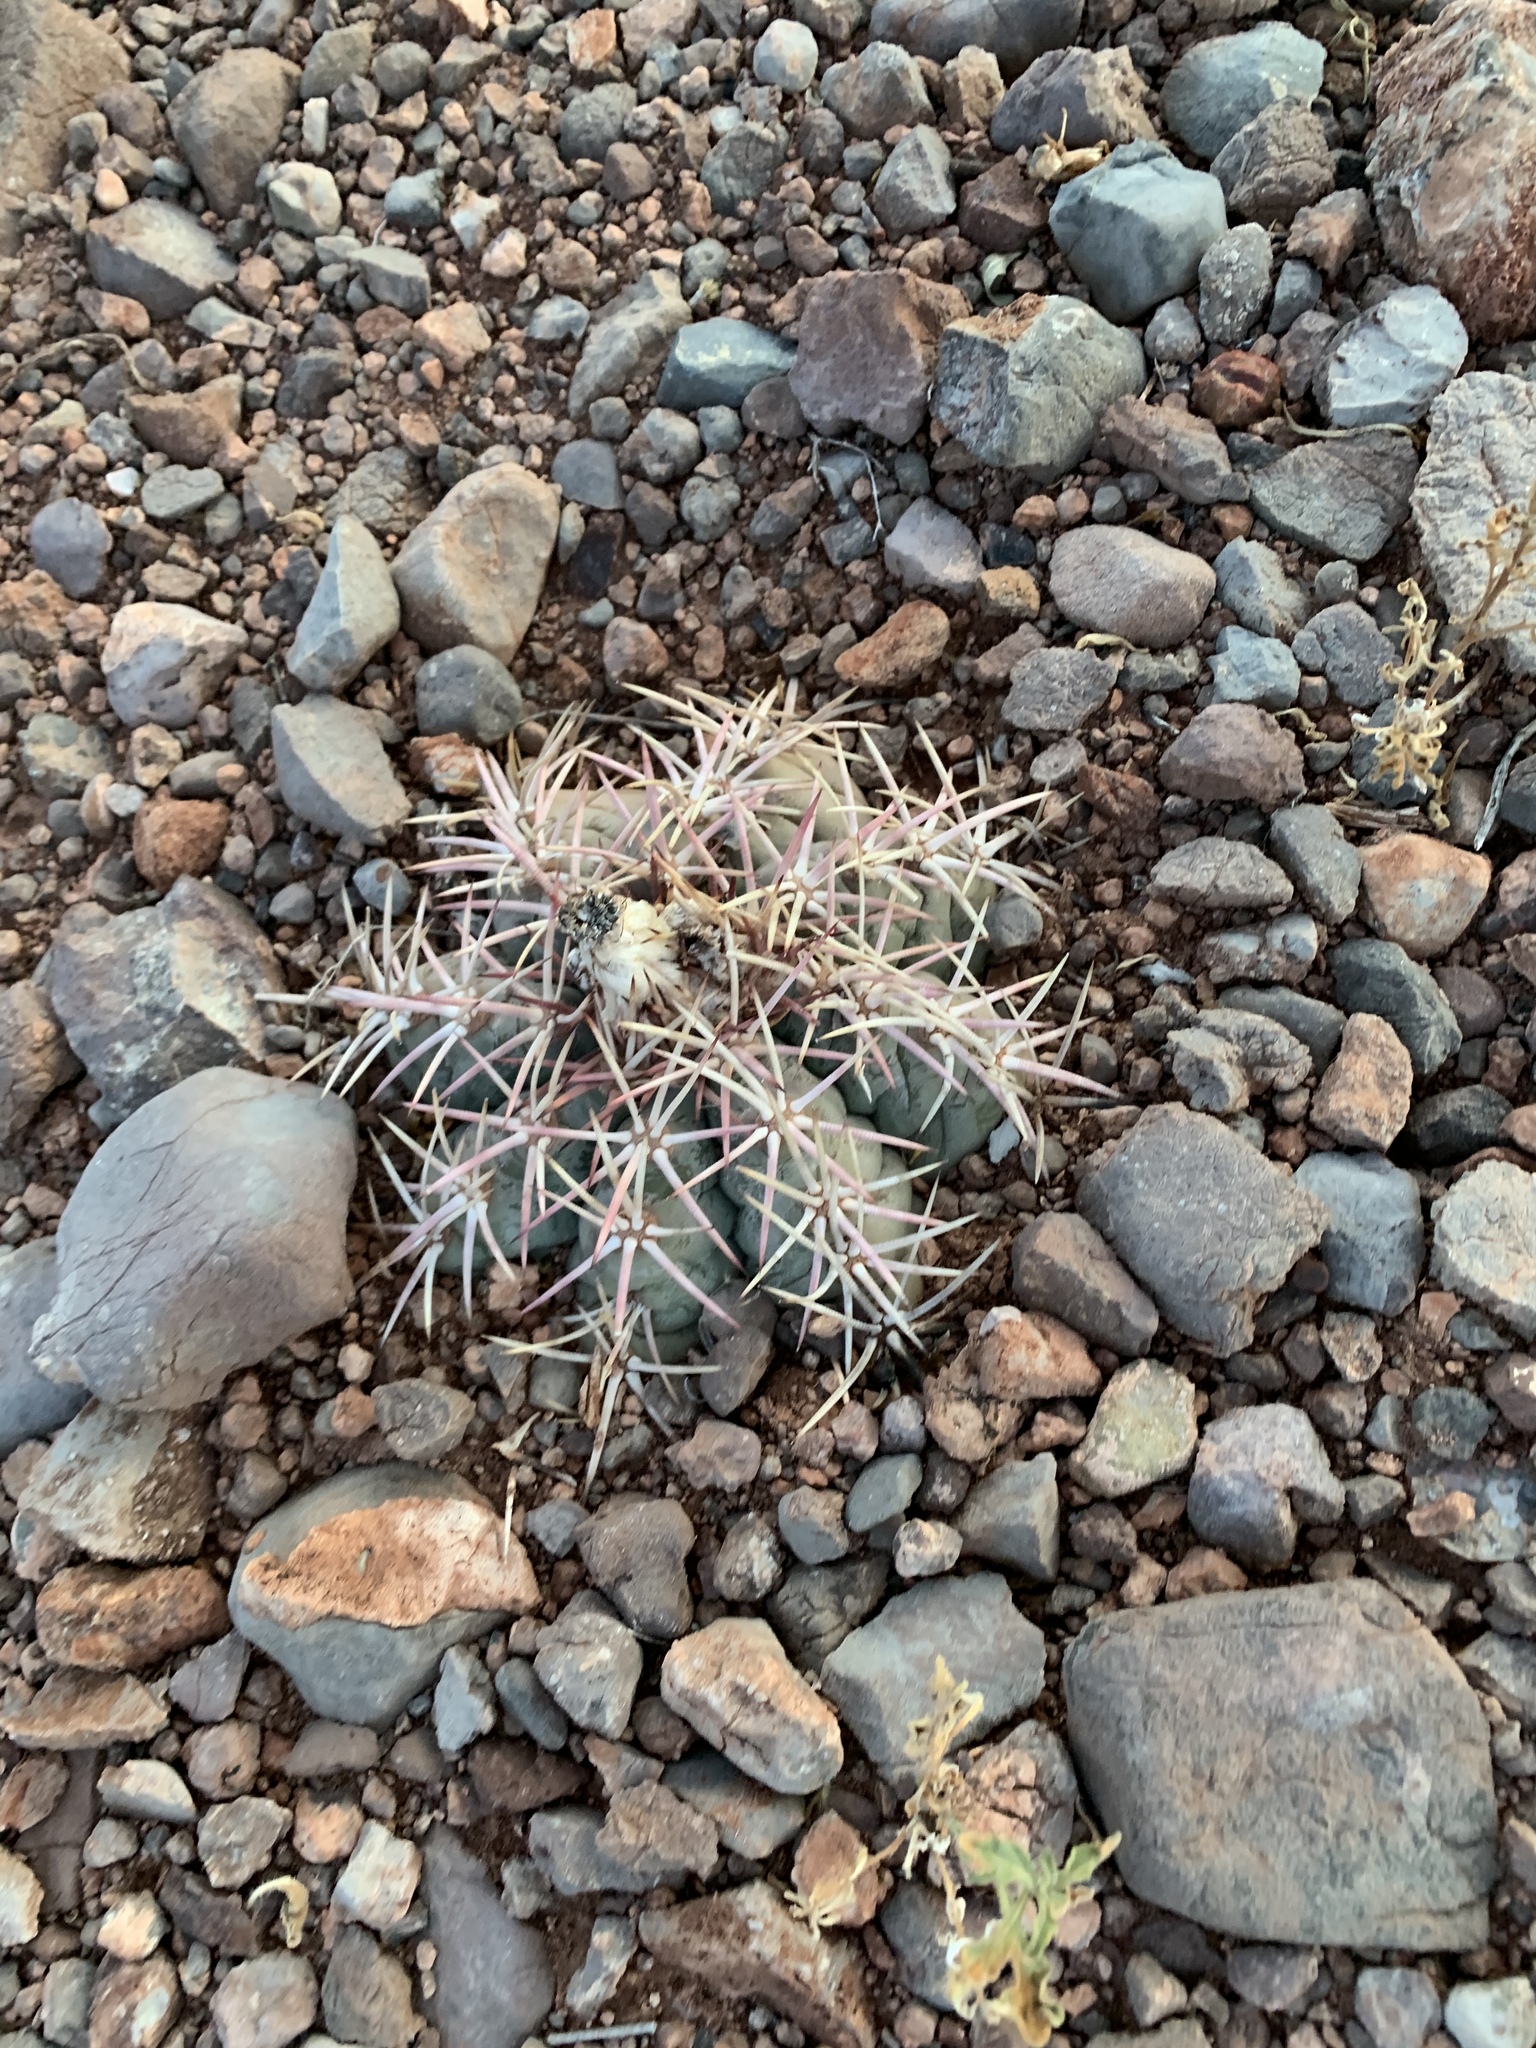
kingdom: Plantae
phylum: Tracheophyta
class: Magnoliopsida
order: Caryophyllales
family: Cactaceae
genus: Echinocactus
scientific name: Echinocactus horizonthalonius
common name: Devilshead
